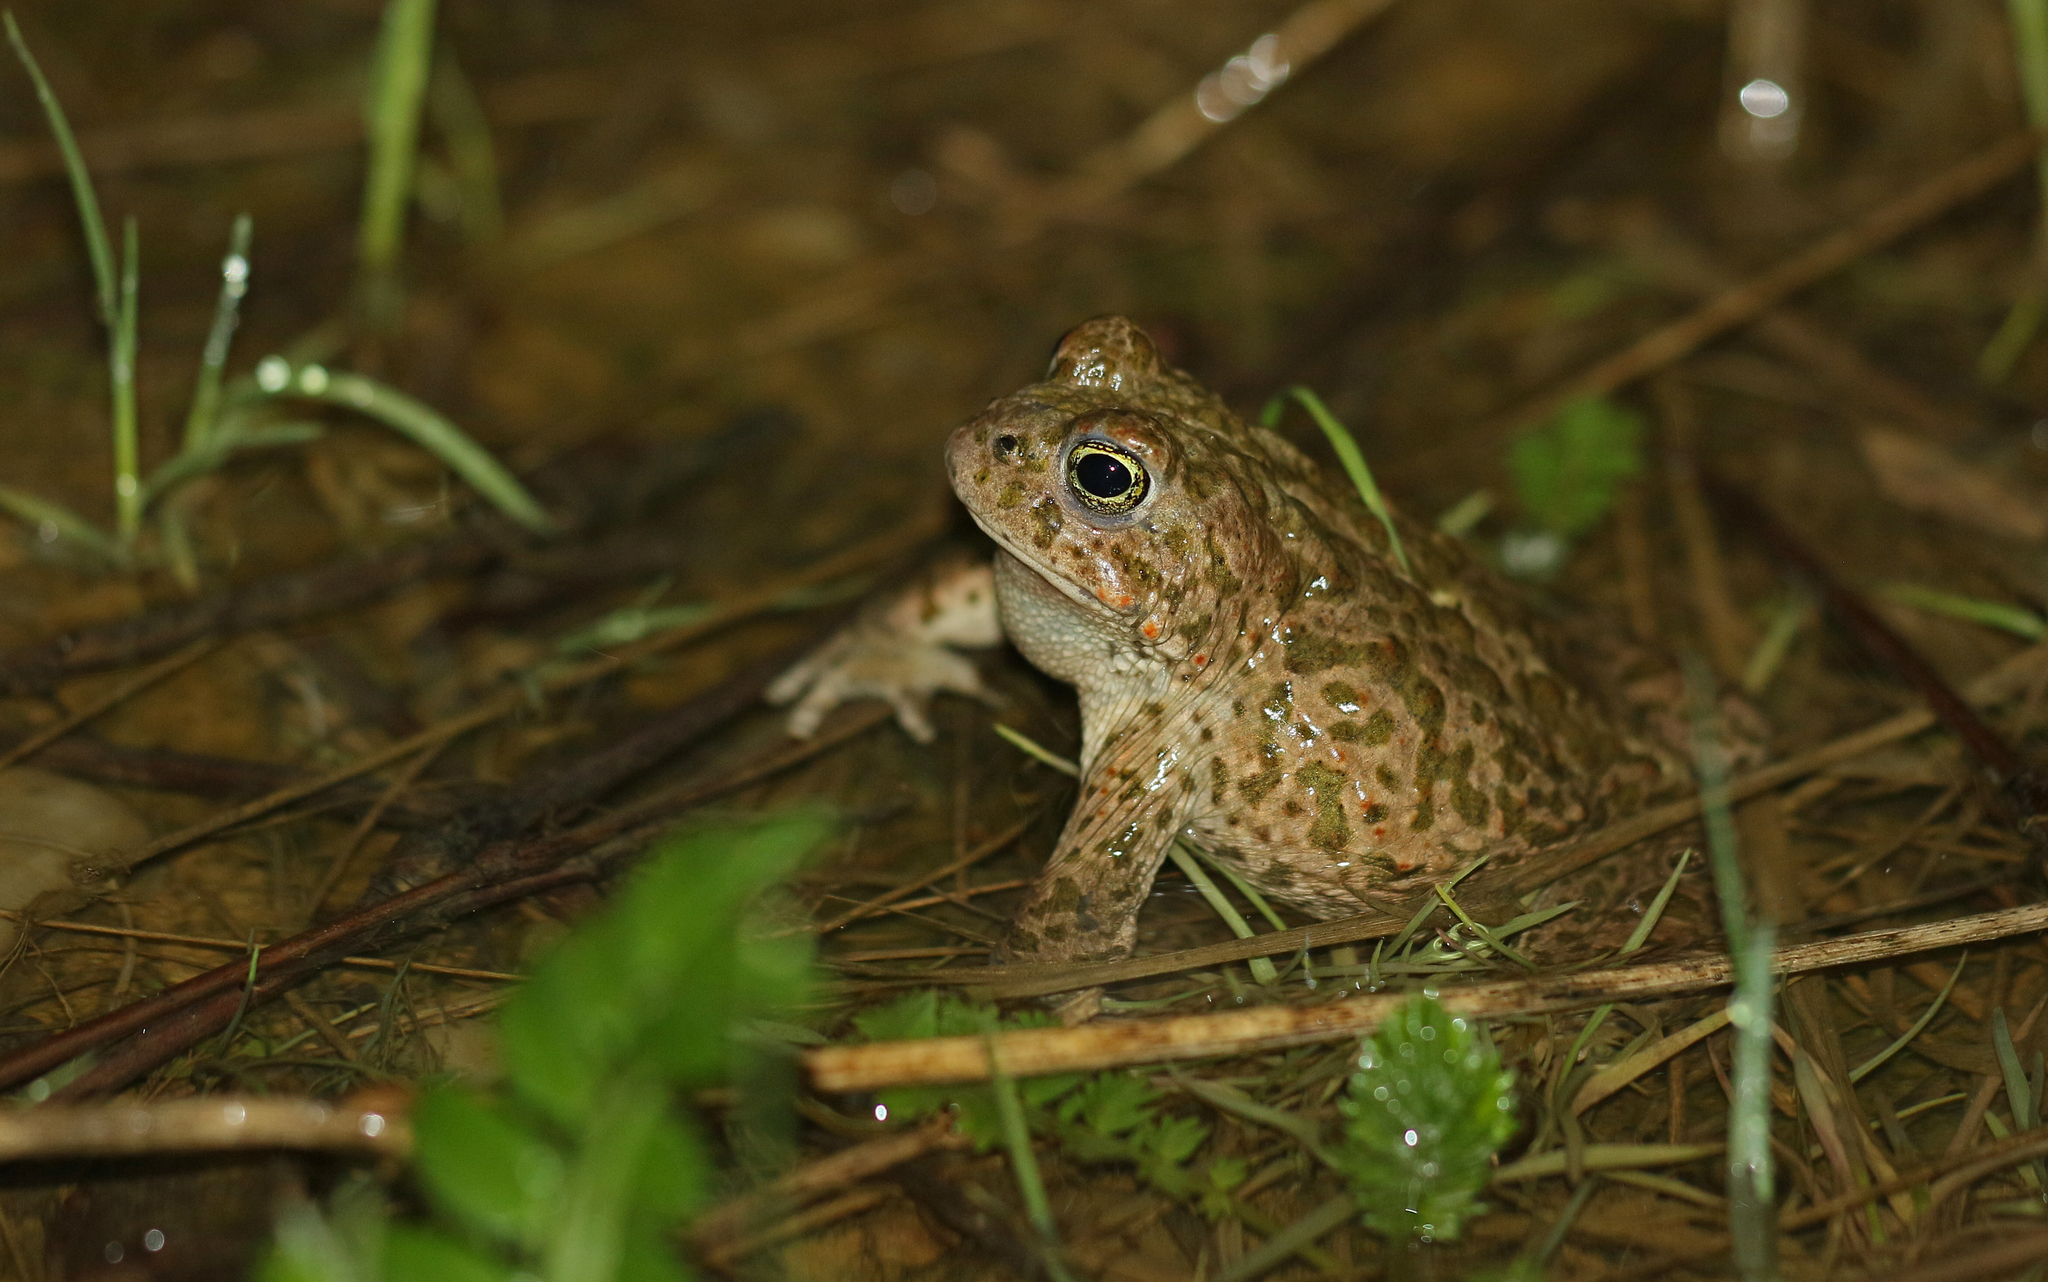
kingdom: Animalia
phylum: Chordata
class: Amphibia
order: Anura
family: Bufonidae
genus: Epidalea
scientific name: Epidalea calamita
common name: Natterjack toad
